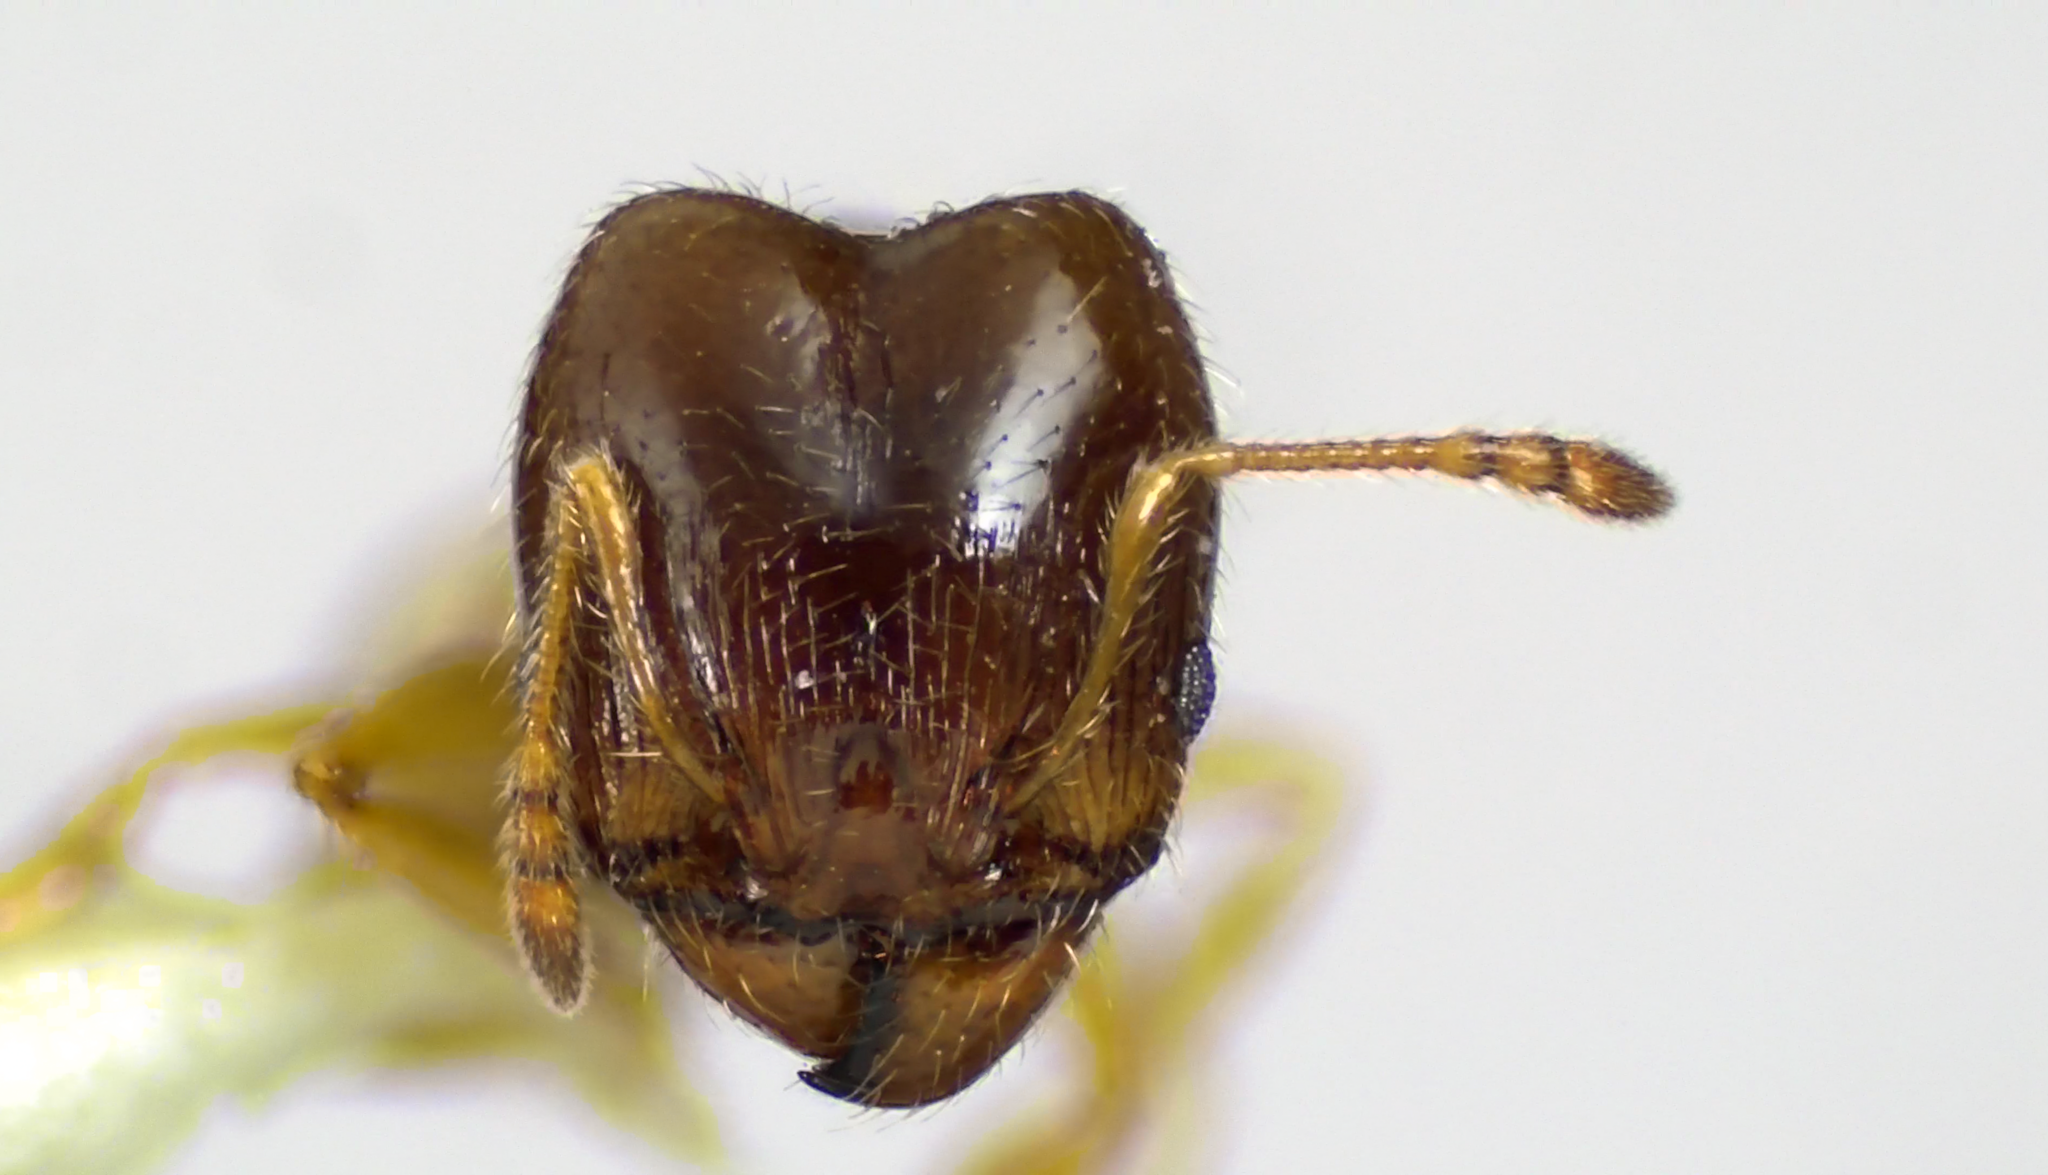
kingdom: Animalia
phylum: Arthropoda
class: Insecta
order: Hymenoptera
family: Formicidae
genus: Pheidole
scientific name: Pheidole bicarinata
